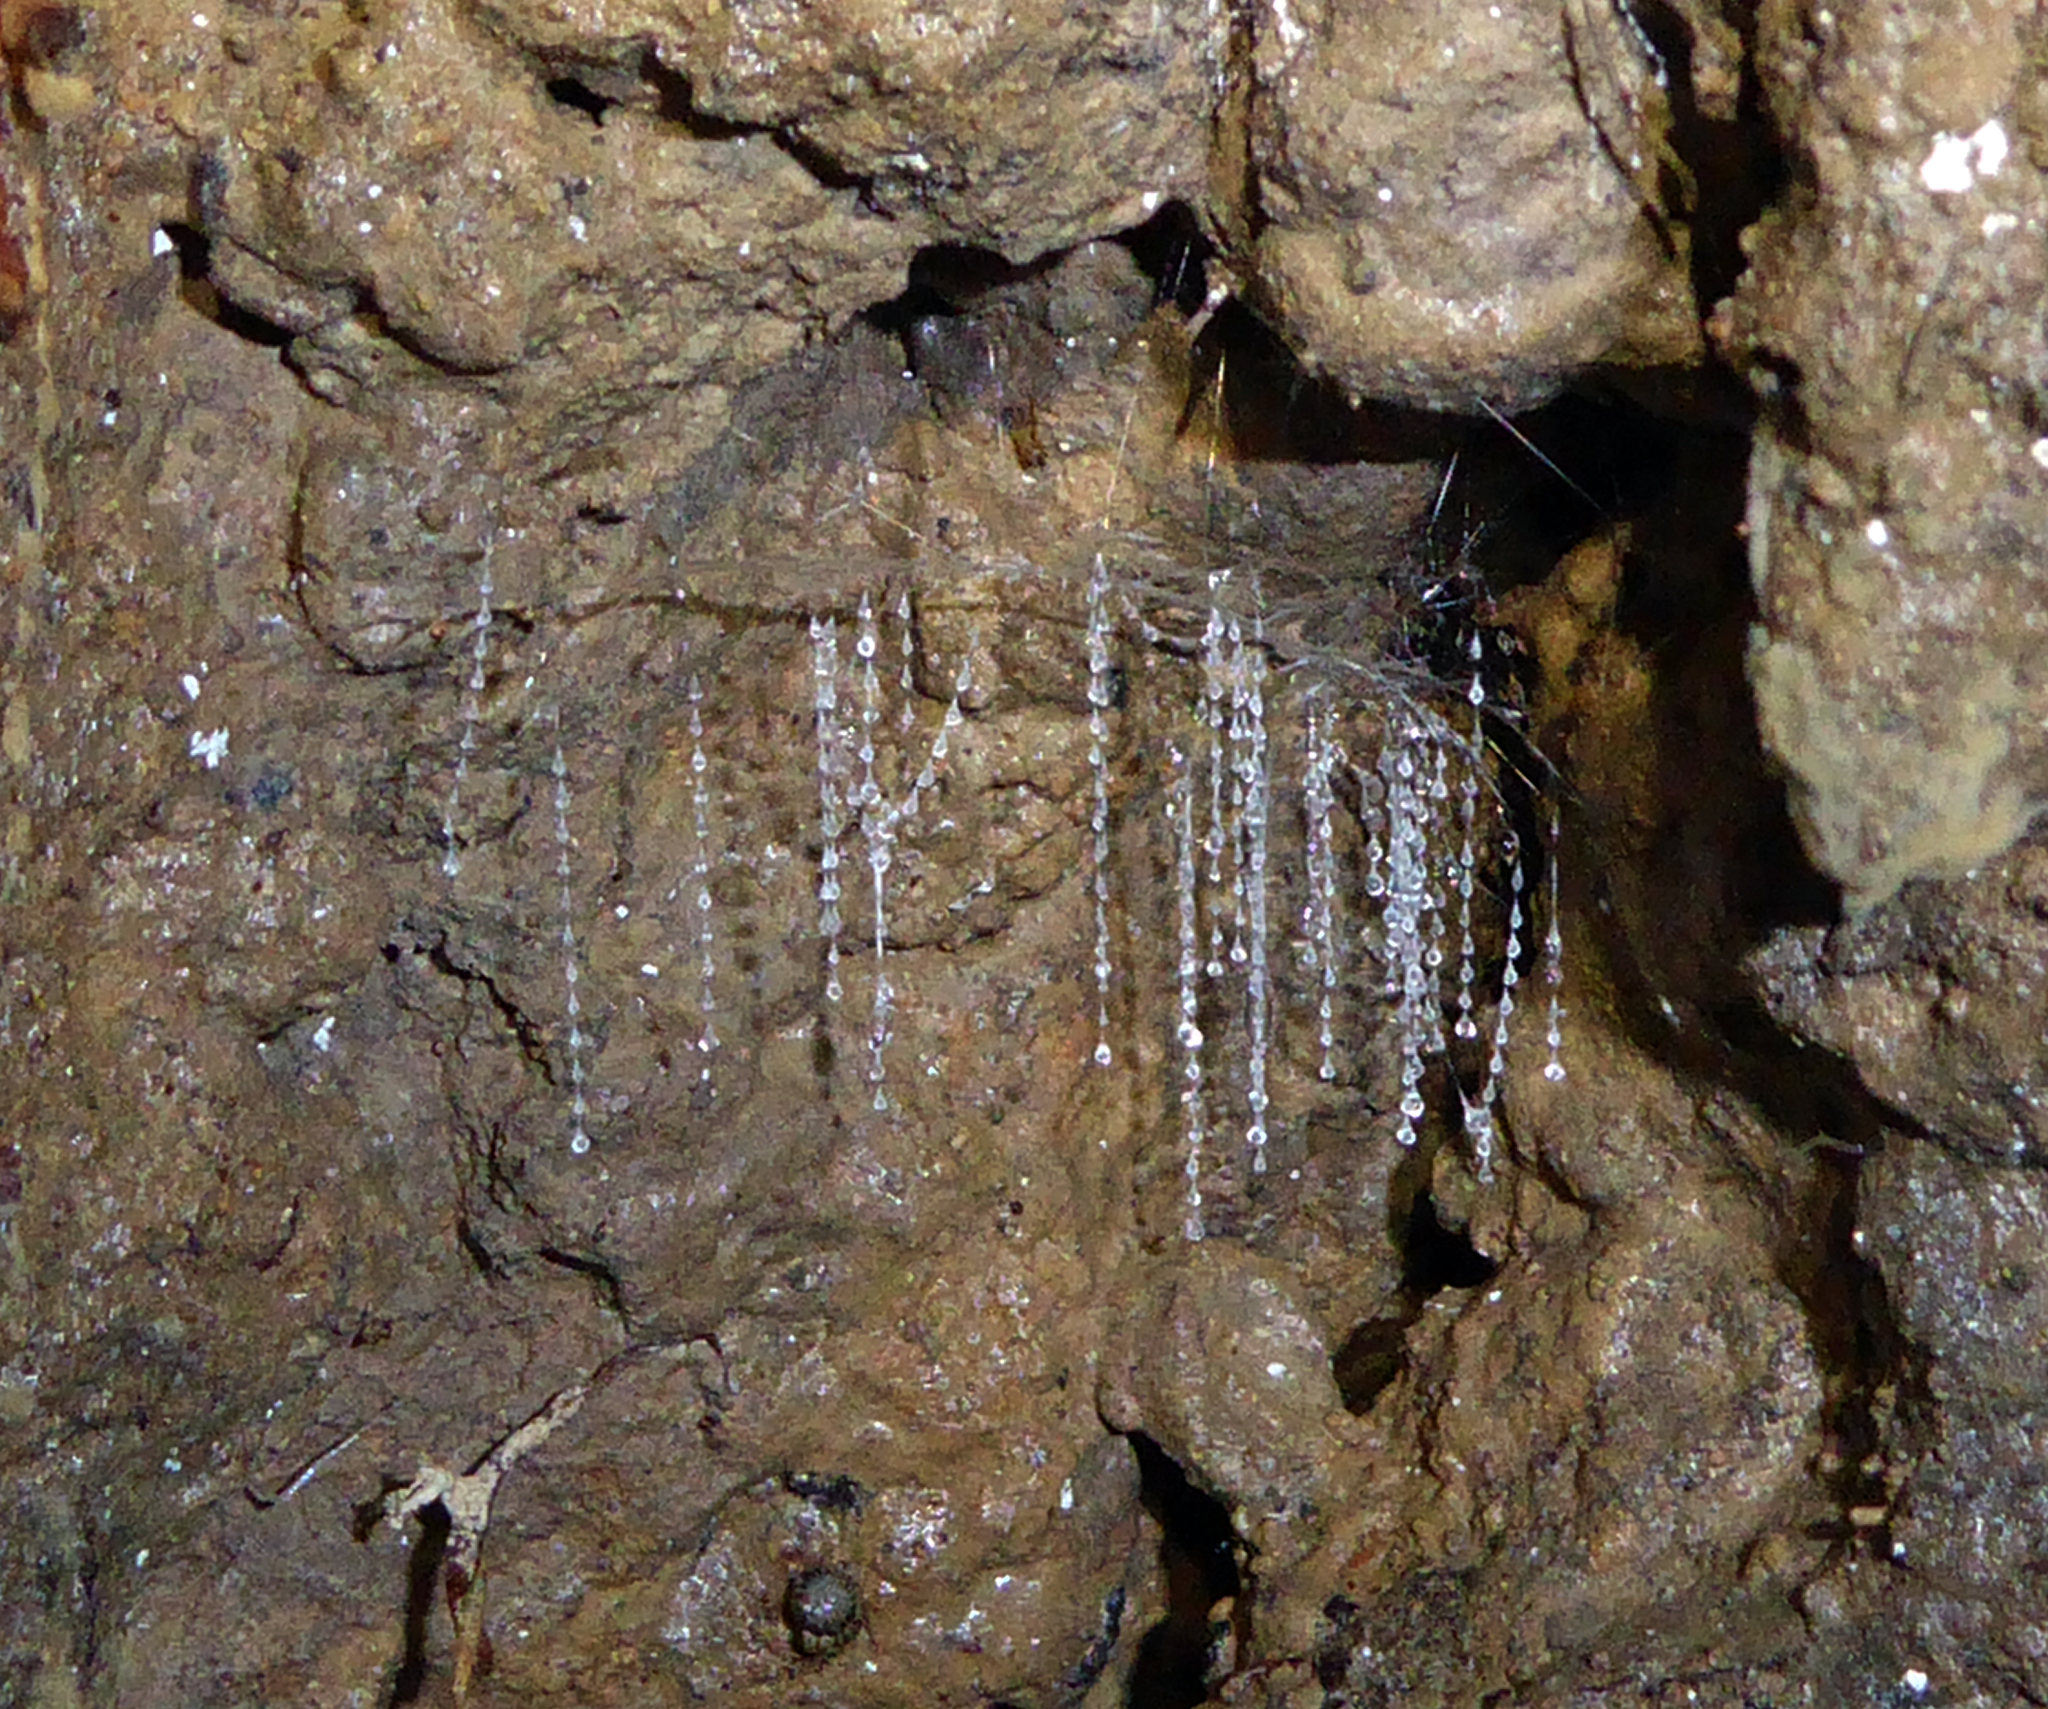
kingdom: Animalia
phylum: Arthropoda
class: Insecta
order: Diptera
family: Keroplatidae
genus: Arachnocampa
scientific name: Arachnocampa luminosa
